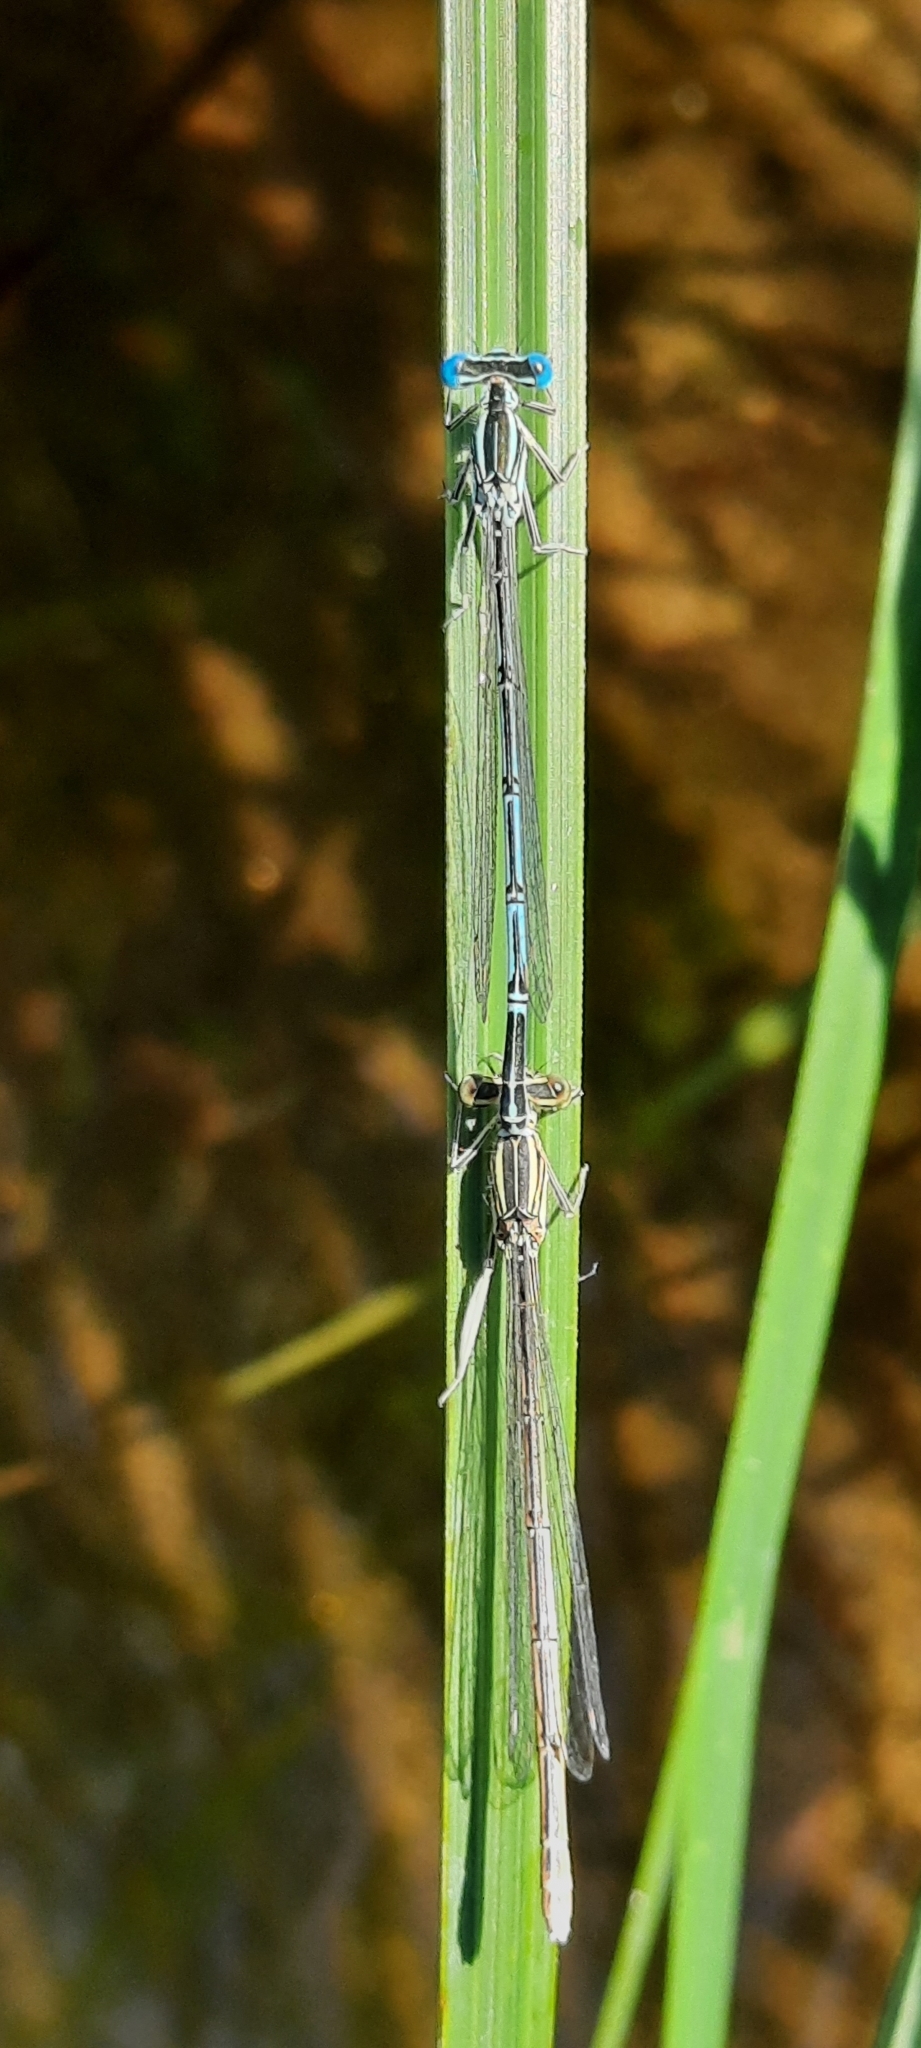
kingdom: Animalia
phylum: Arthropoda
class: Insecta
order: Odonata
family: Platycnemididae
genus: Platycnemis
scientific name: Platycnemis pennipes
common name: White-legged damselfly
